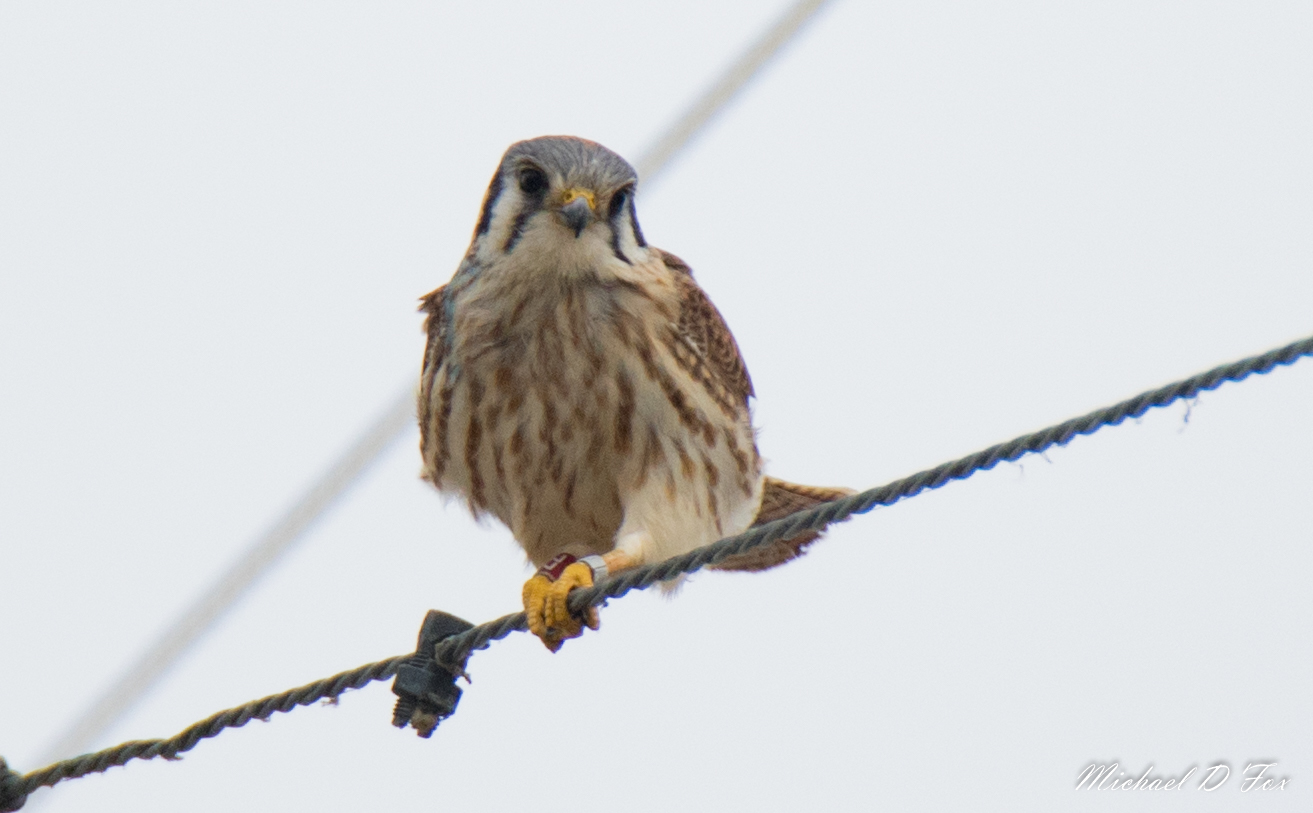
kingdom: Animalia
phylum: Chordata
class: Aves
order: Falconiformes
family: Falconidae
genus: Falco
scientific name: Falco sparverius
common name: American kestrel
